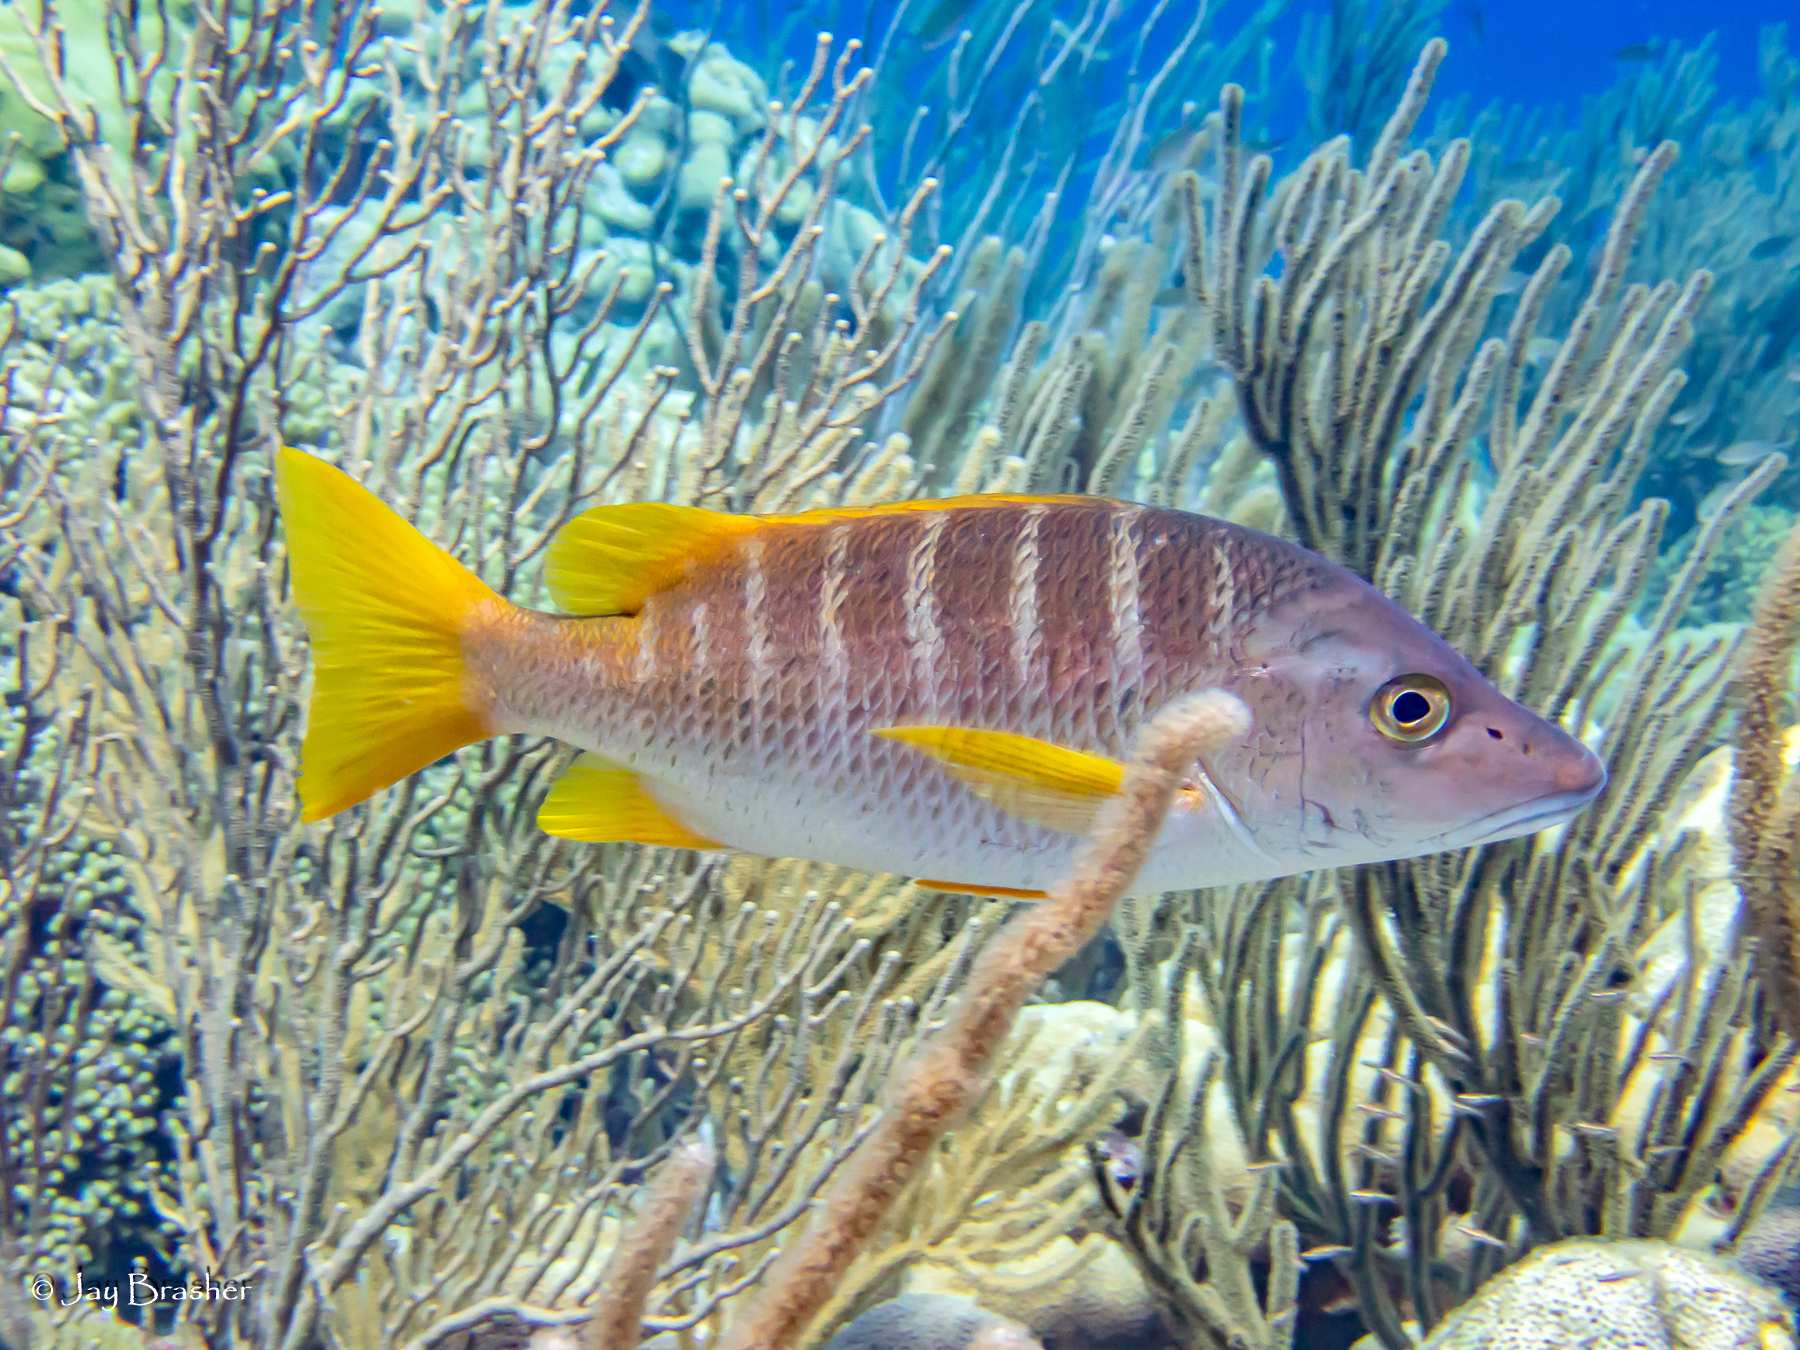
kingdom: Animalia
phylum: Chordata
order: Perciformes
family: Lutjanidae
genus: Lutjanus
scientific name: Lutjanus apodus
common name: Schoolmaster
